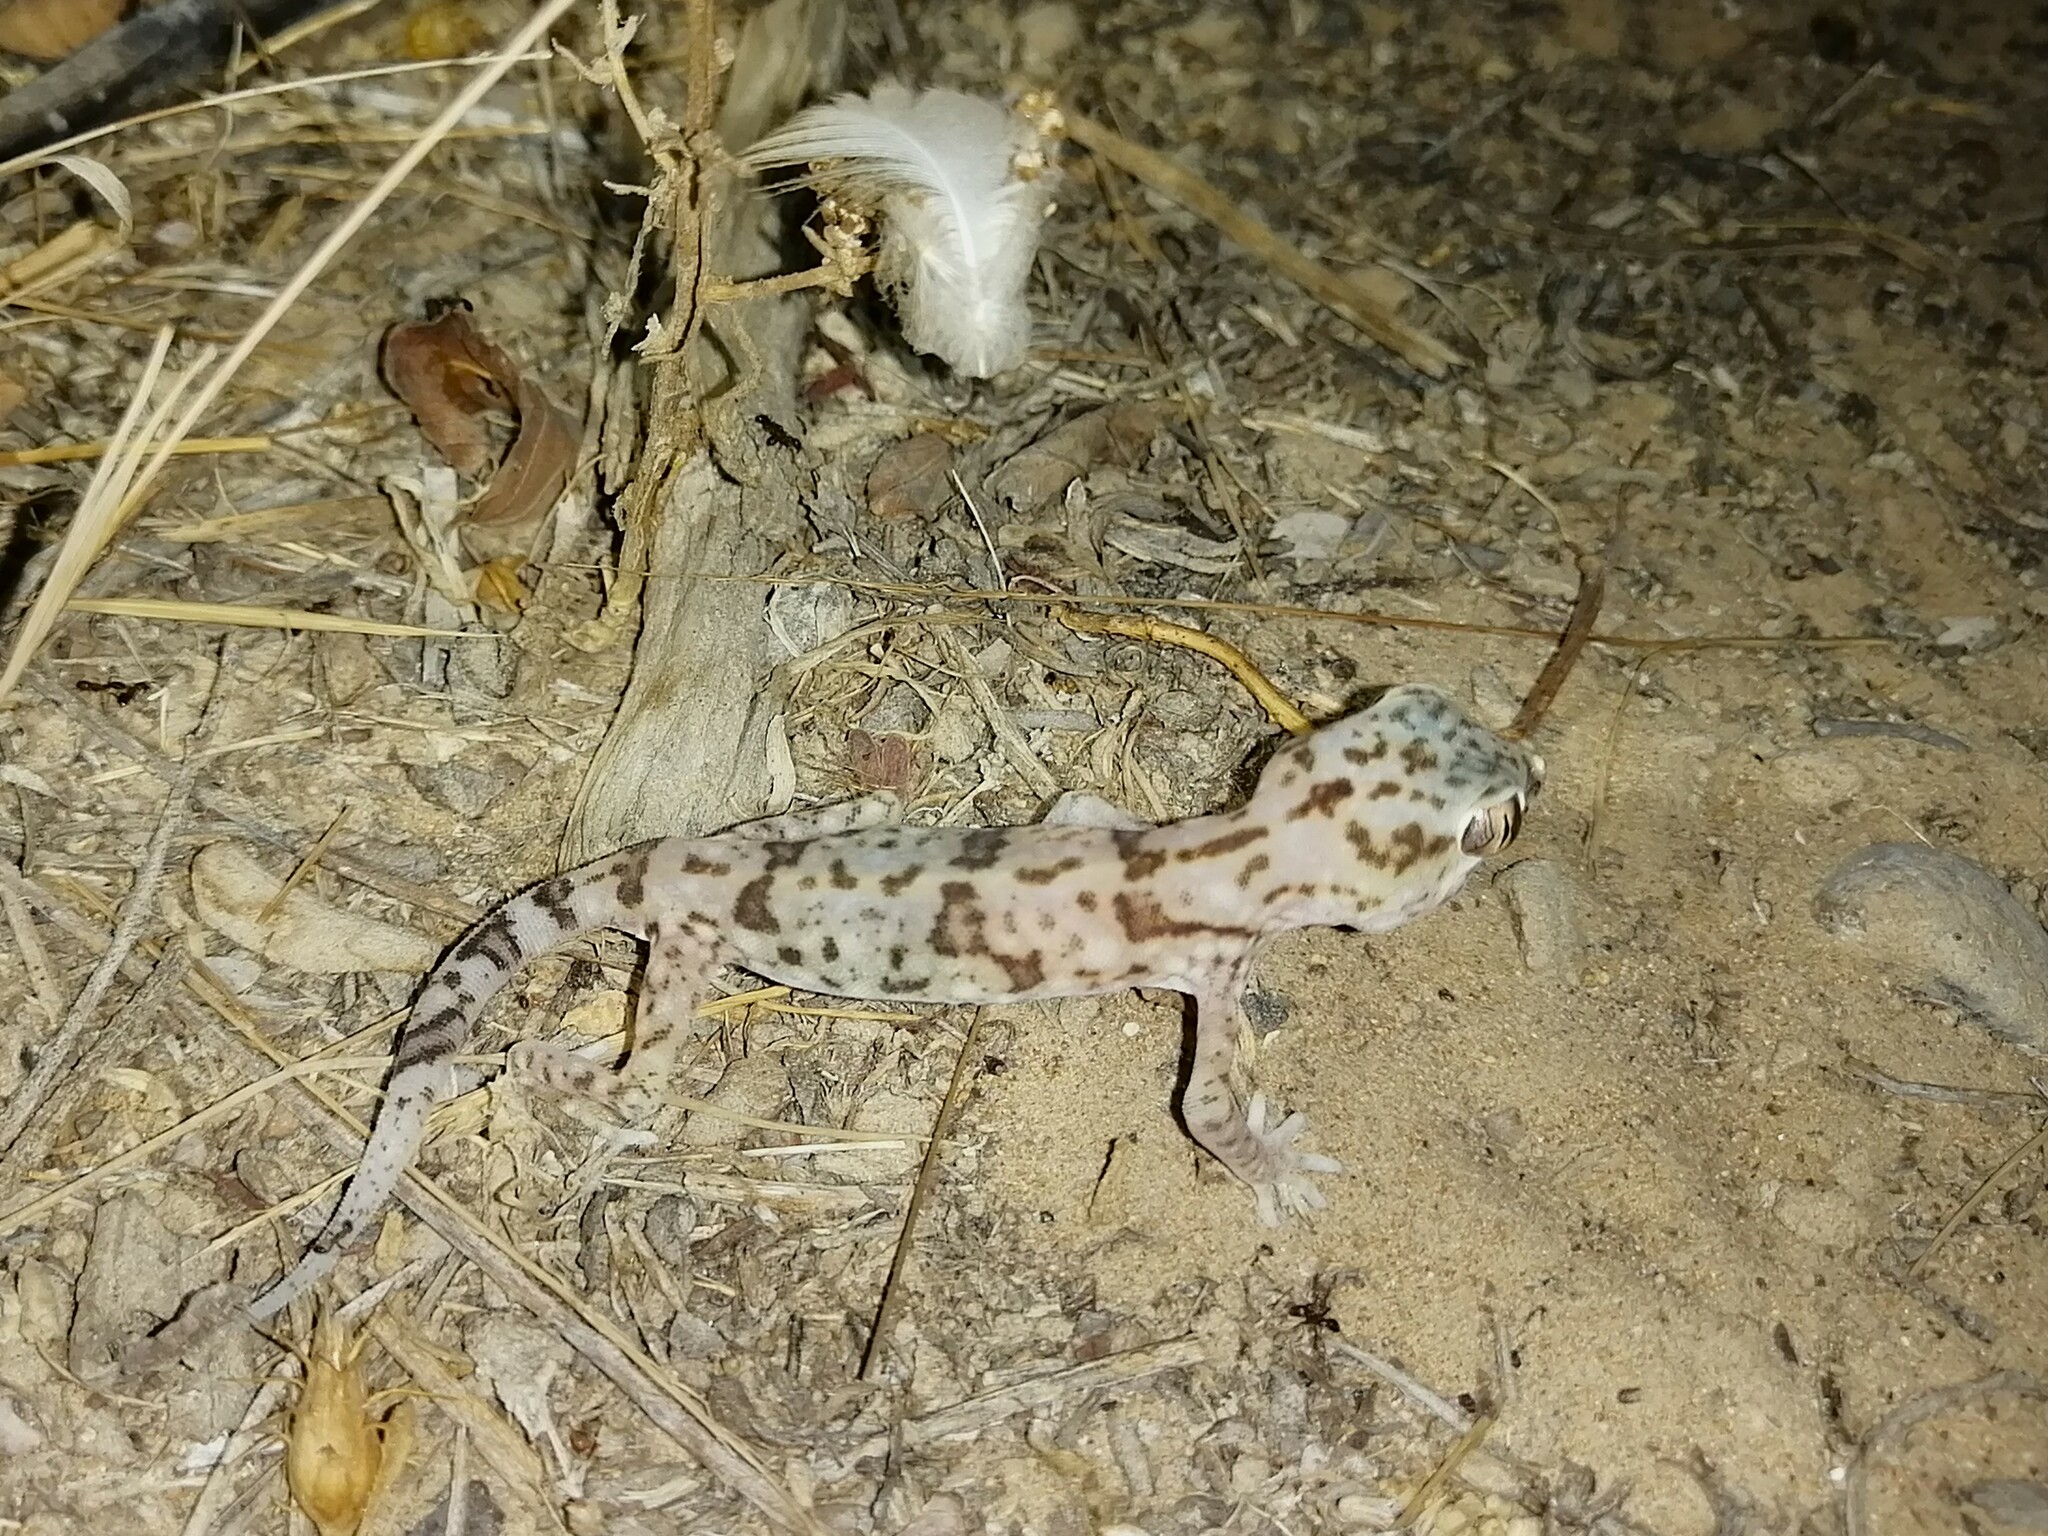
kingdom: Animalia
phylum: Chordata
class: Squamata
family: Gekkonidae
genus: Stenodactylus
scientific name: Stenodactylus leptocosymbotes
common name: Eastern sand gecko
